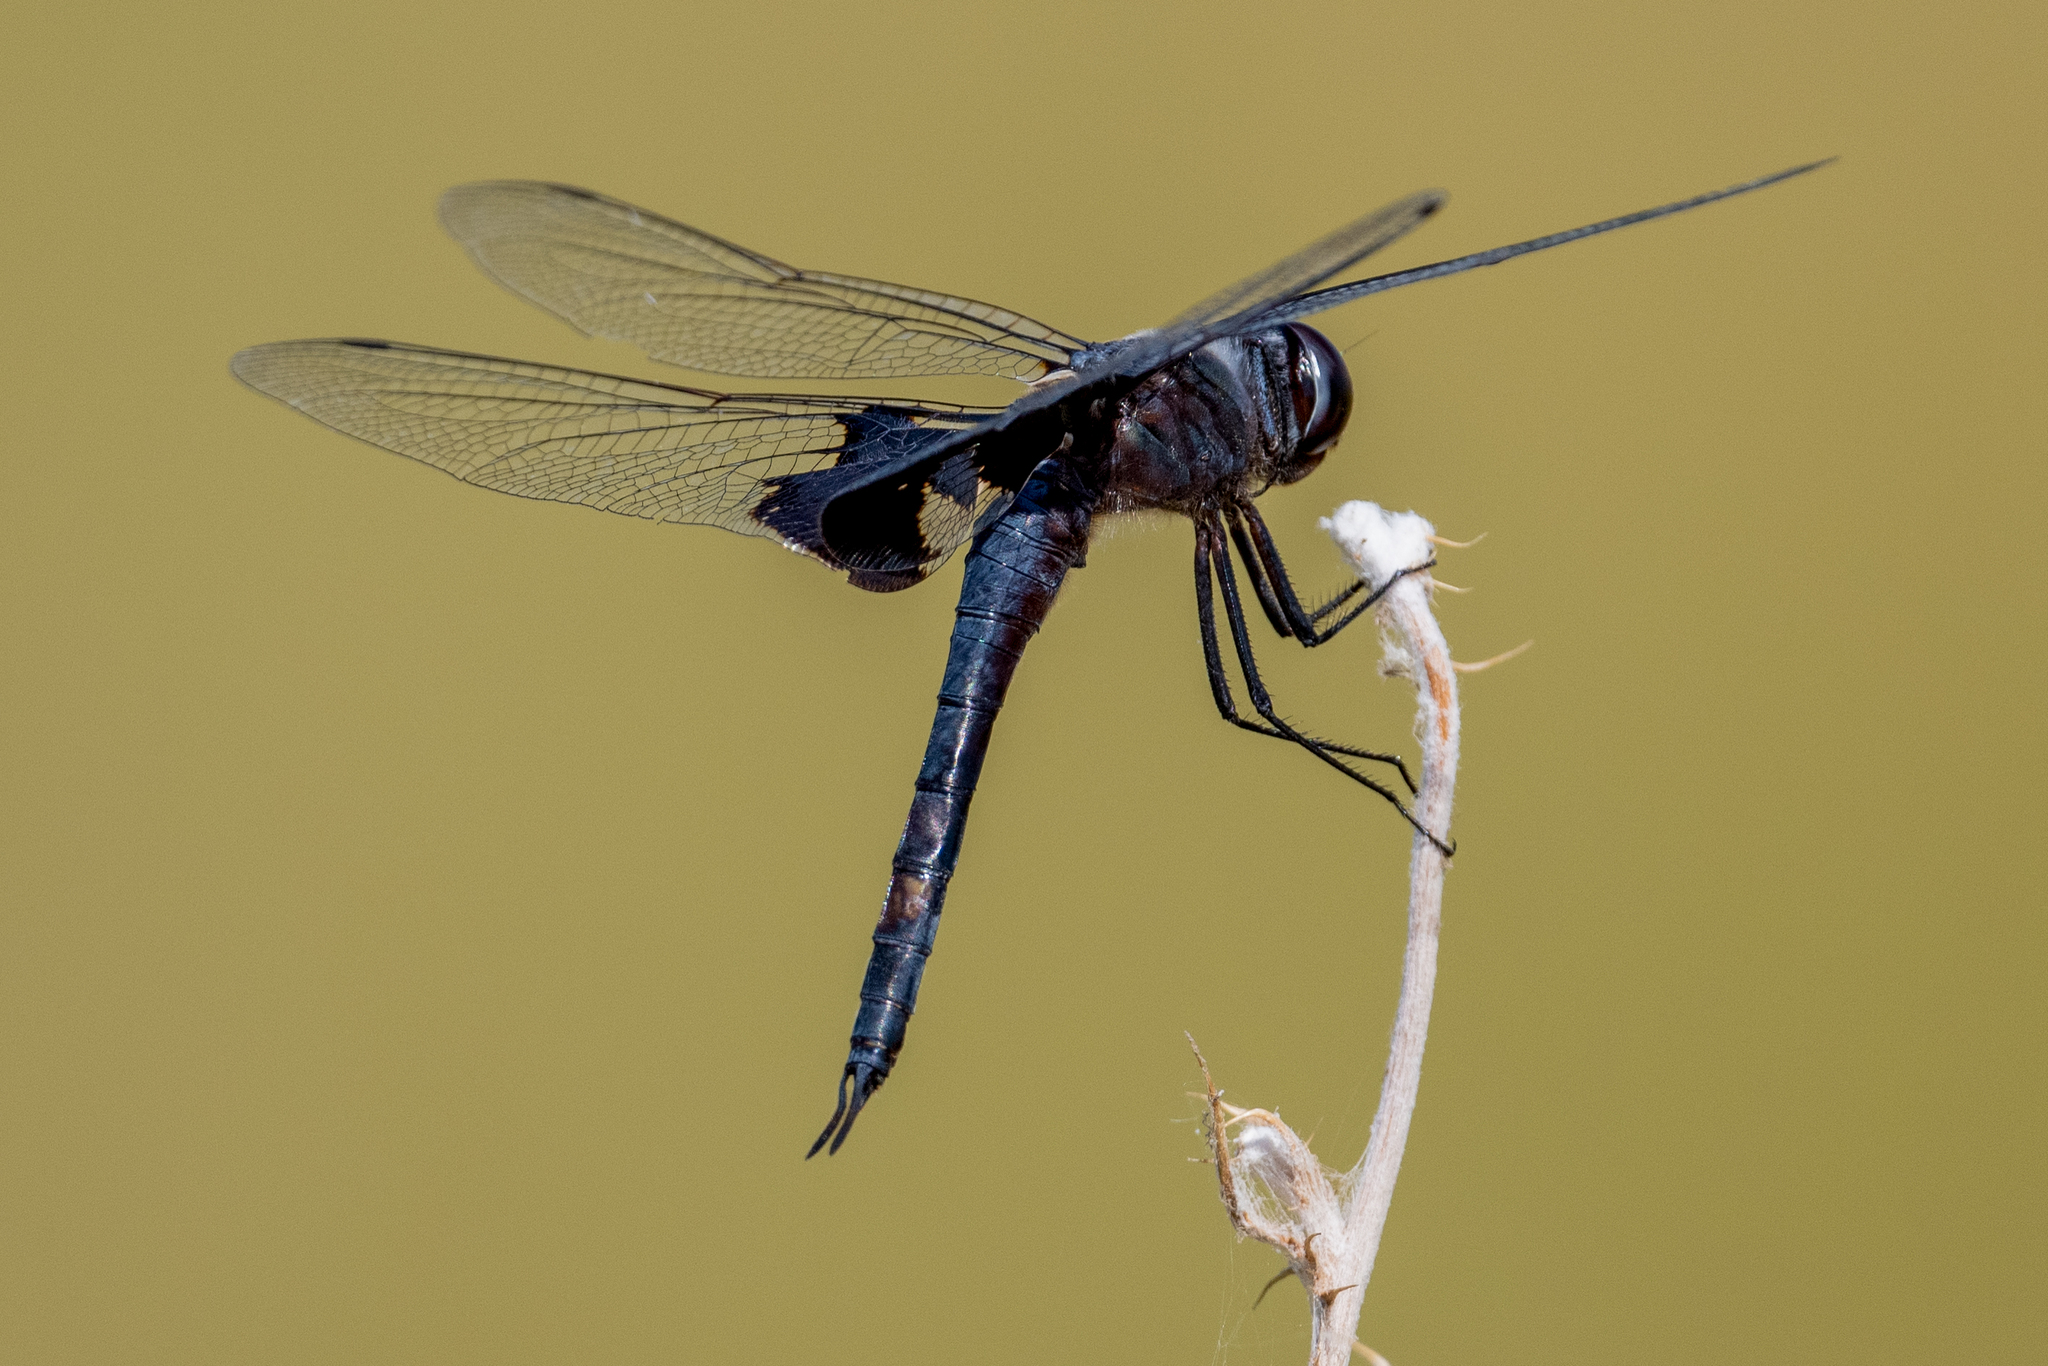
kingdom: Animalia
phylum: Arthropoda
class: Insecta
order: Odonata
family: Libellulidae
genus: Tramea
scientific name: Tramea lacerata
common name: Black saddlebags
